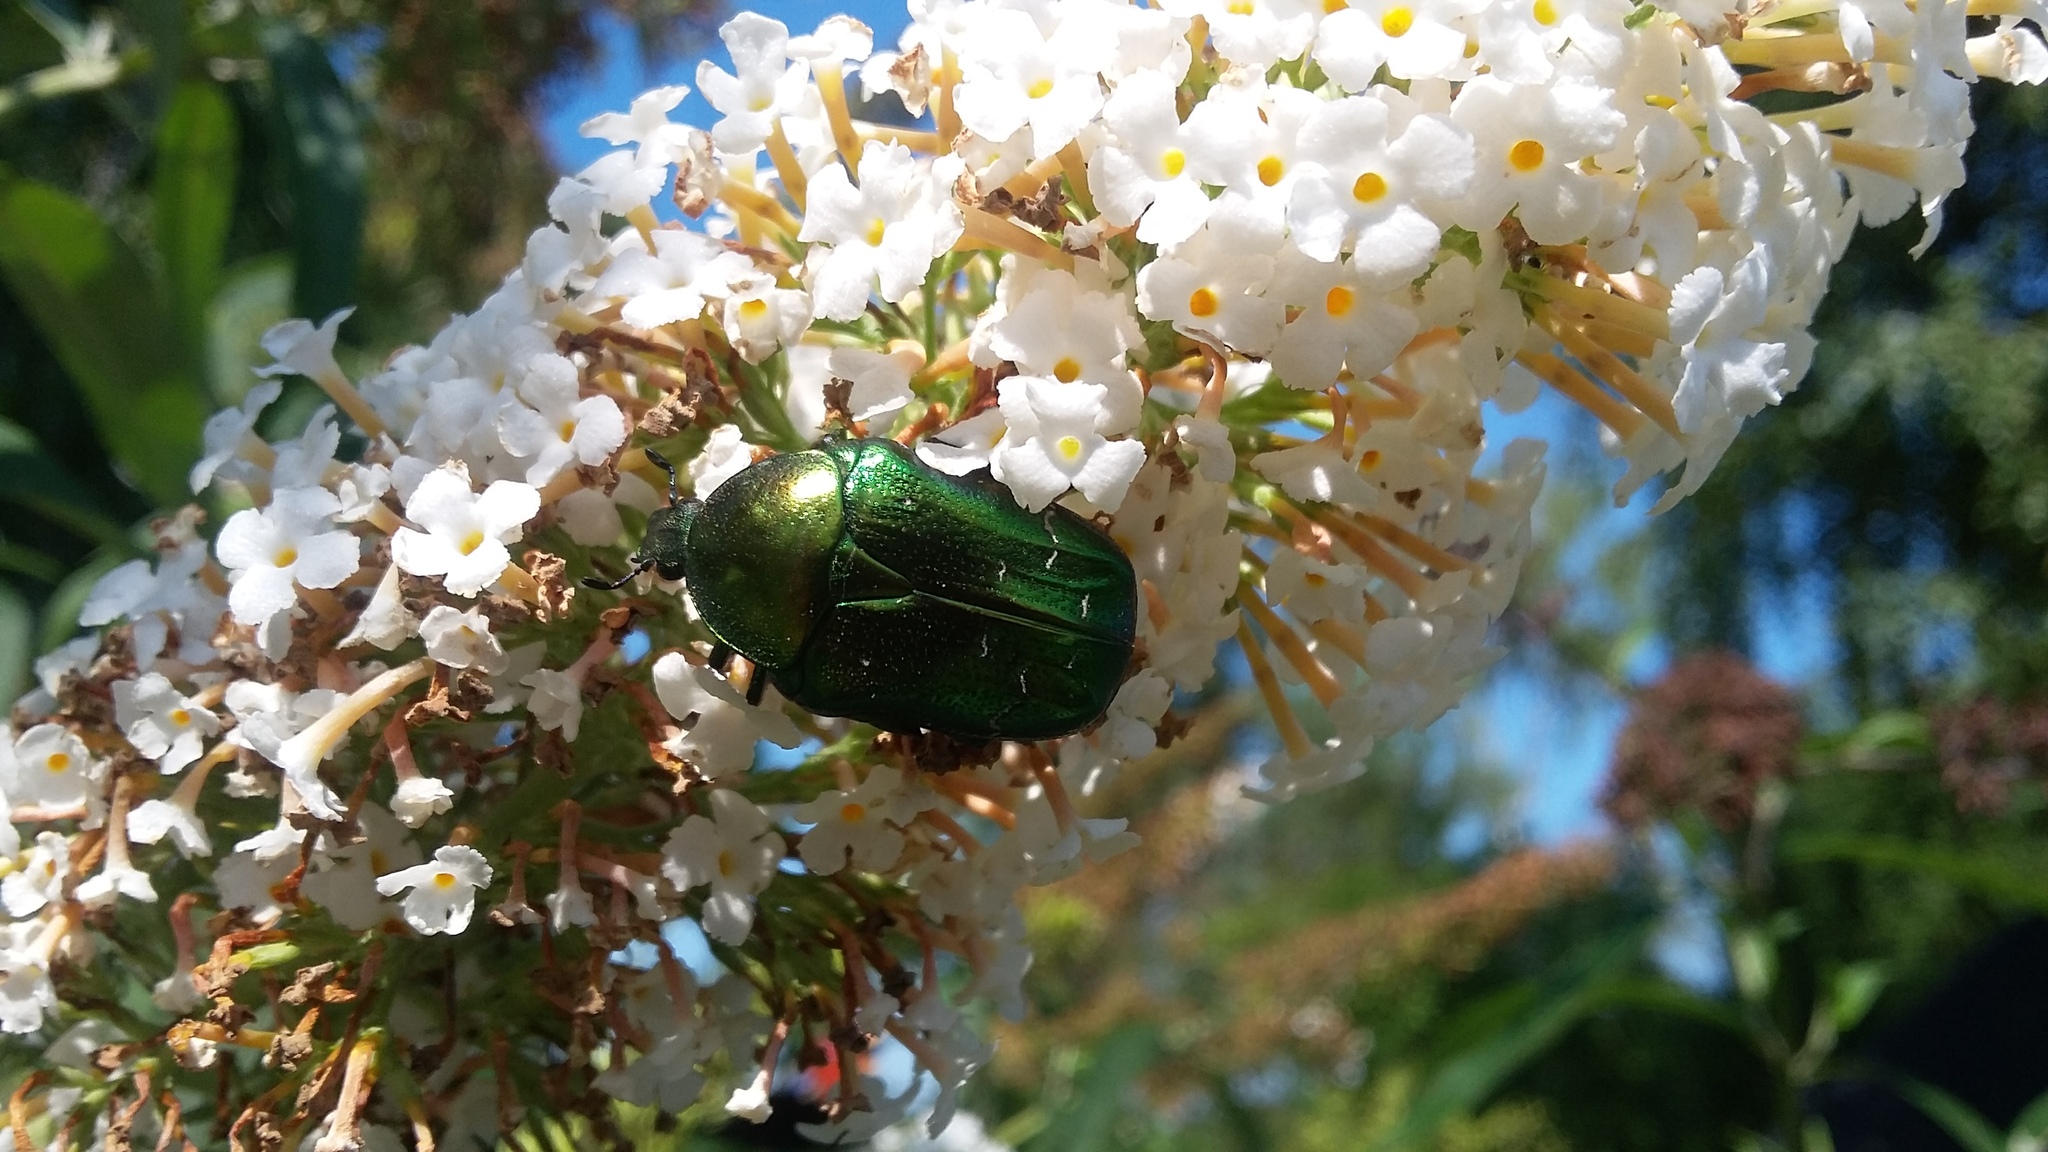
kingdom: Animalia
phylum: Arthropoda
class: Insecta
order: Coleoptera
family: Scarabaeidae
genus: Cetonia
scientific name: Cetonia aurata
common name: Rose chafer
